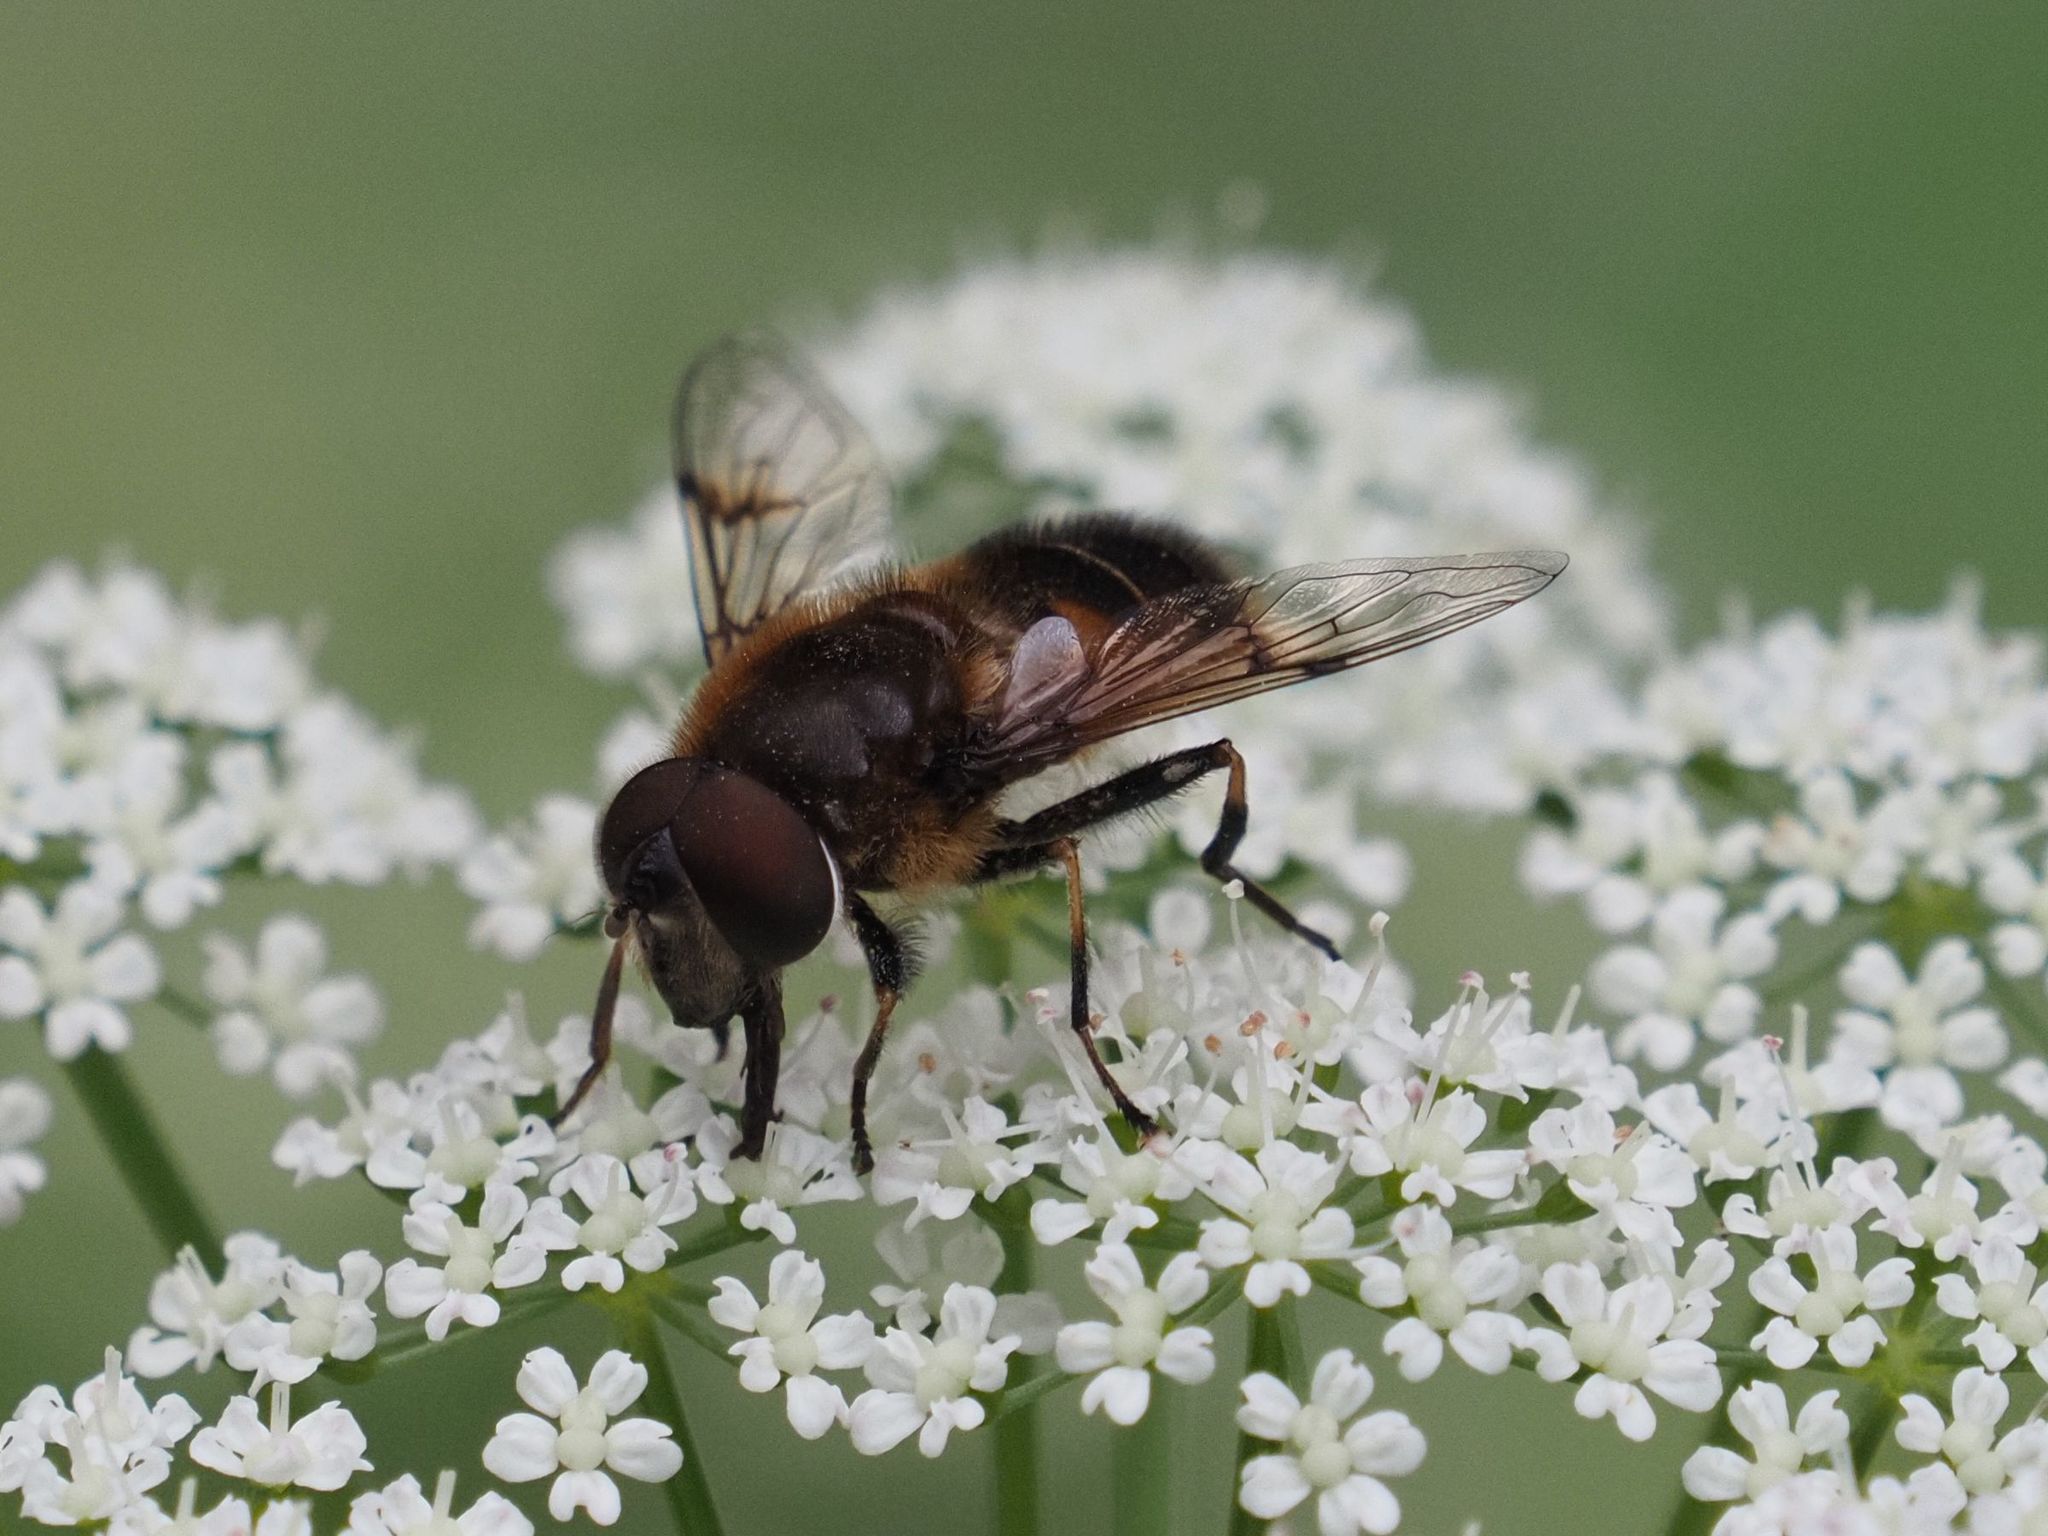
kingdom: Animalia
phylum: Arthropoda
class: Insecta
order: Diptera
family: Syrphidae
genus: Eristalis
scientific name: Eristalis rupium
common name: Hover fly
